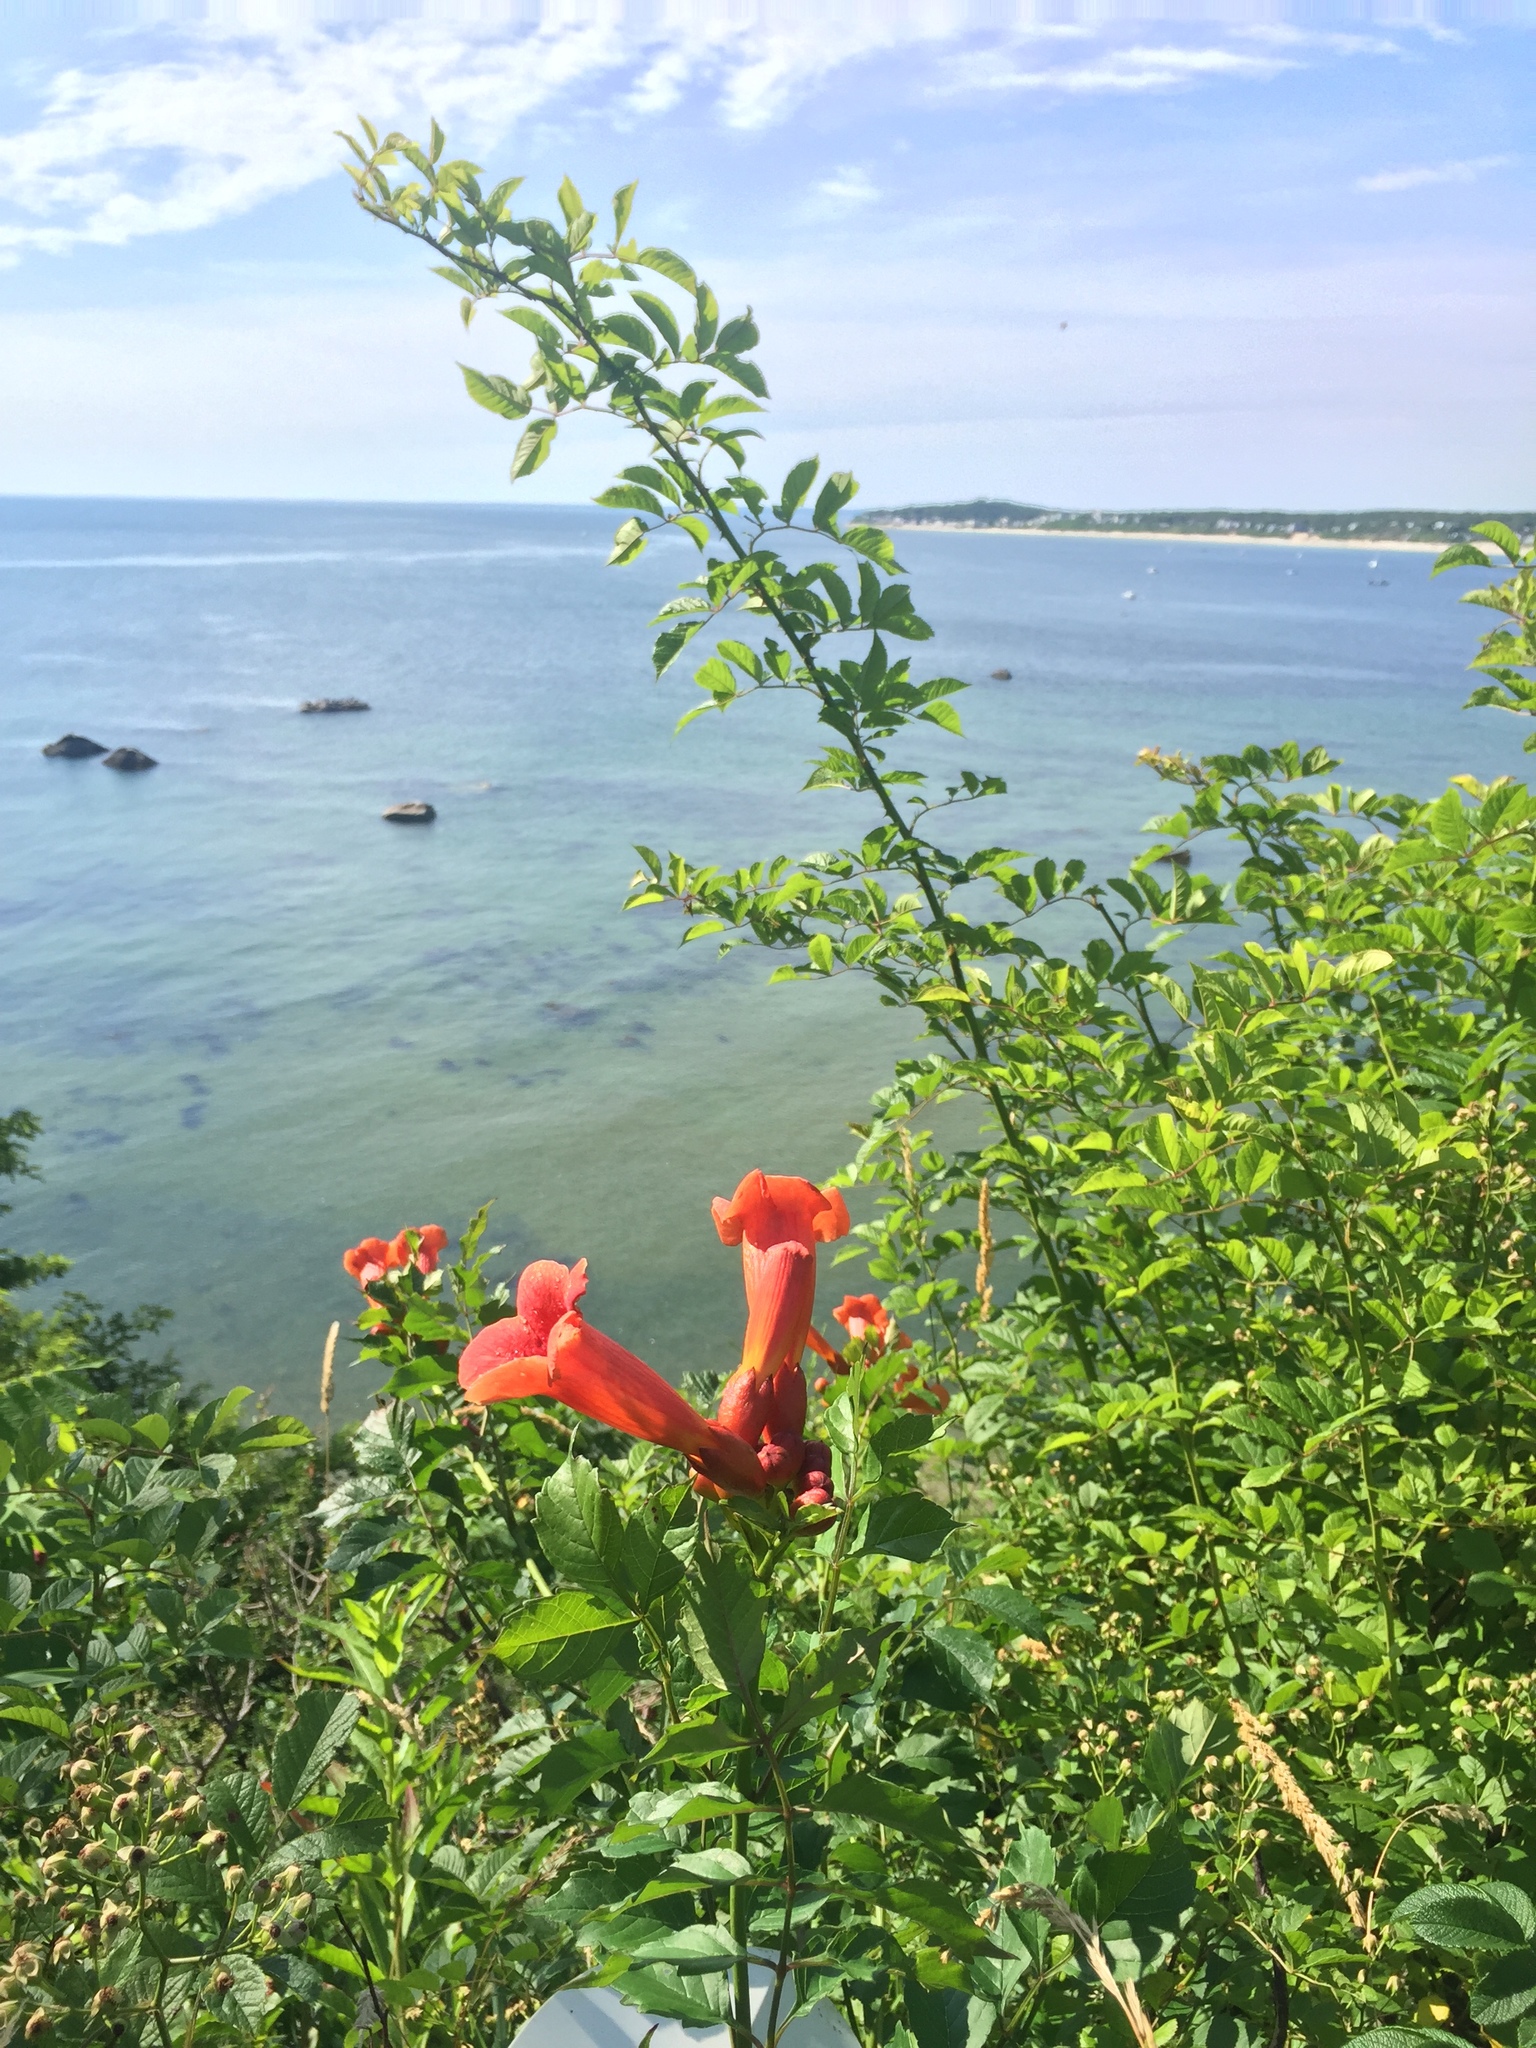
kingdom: Plantae
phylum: Tracheophyta
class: Magnoliopsida
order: Lamiales
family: Bignoniaceae
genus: Campsis
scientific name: Campsis radicans
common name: Trumpet-creeper
